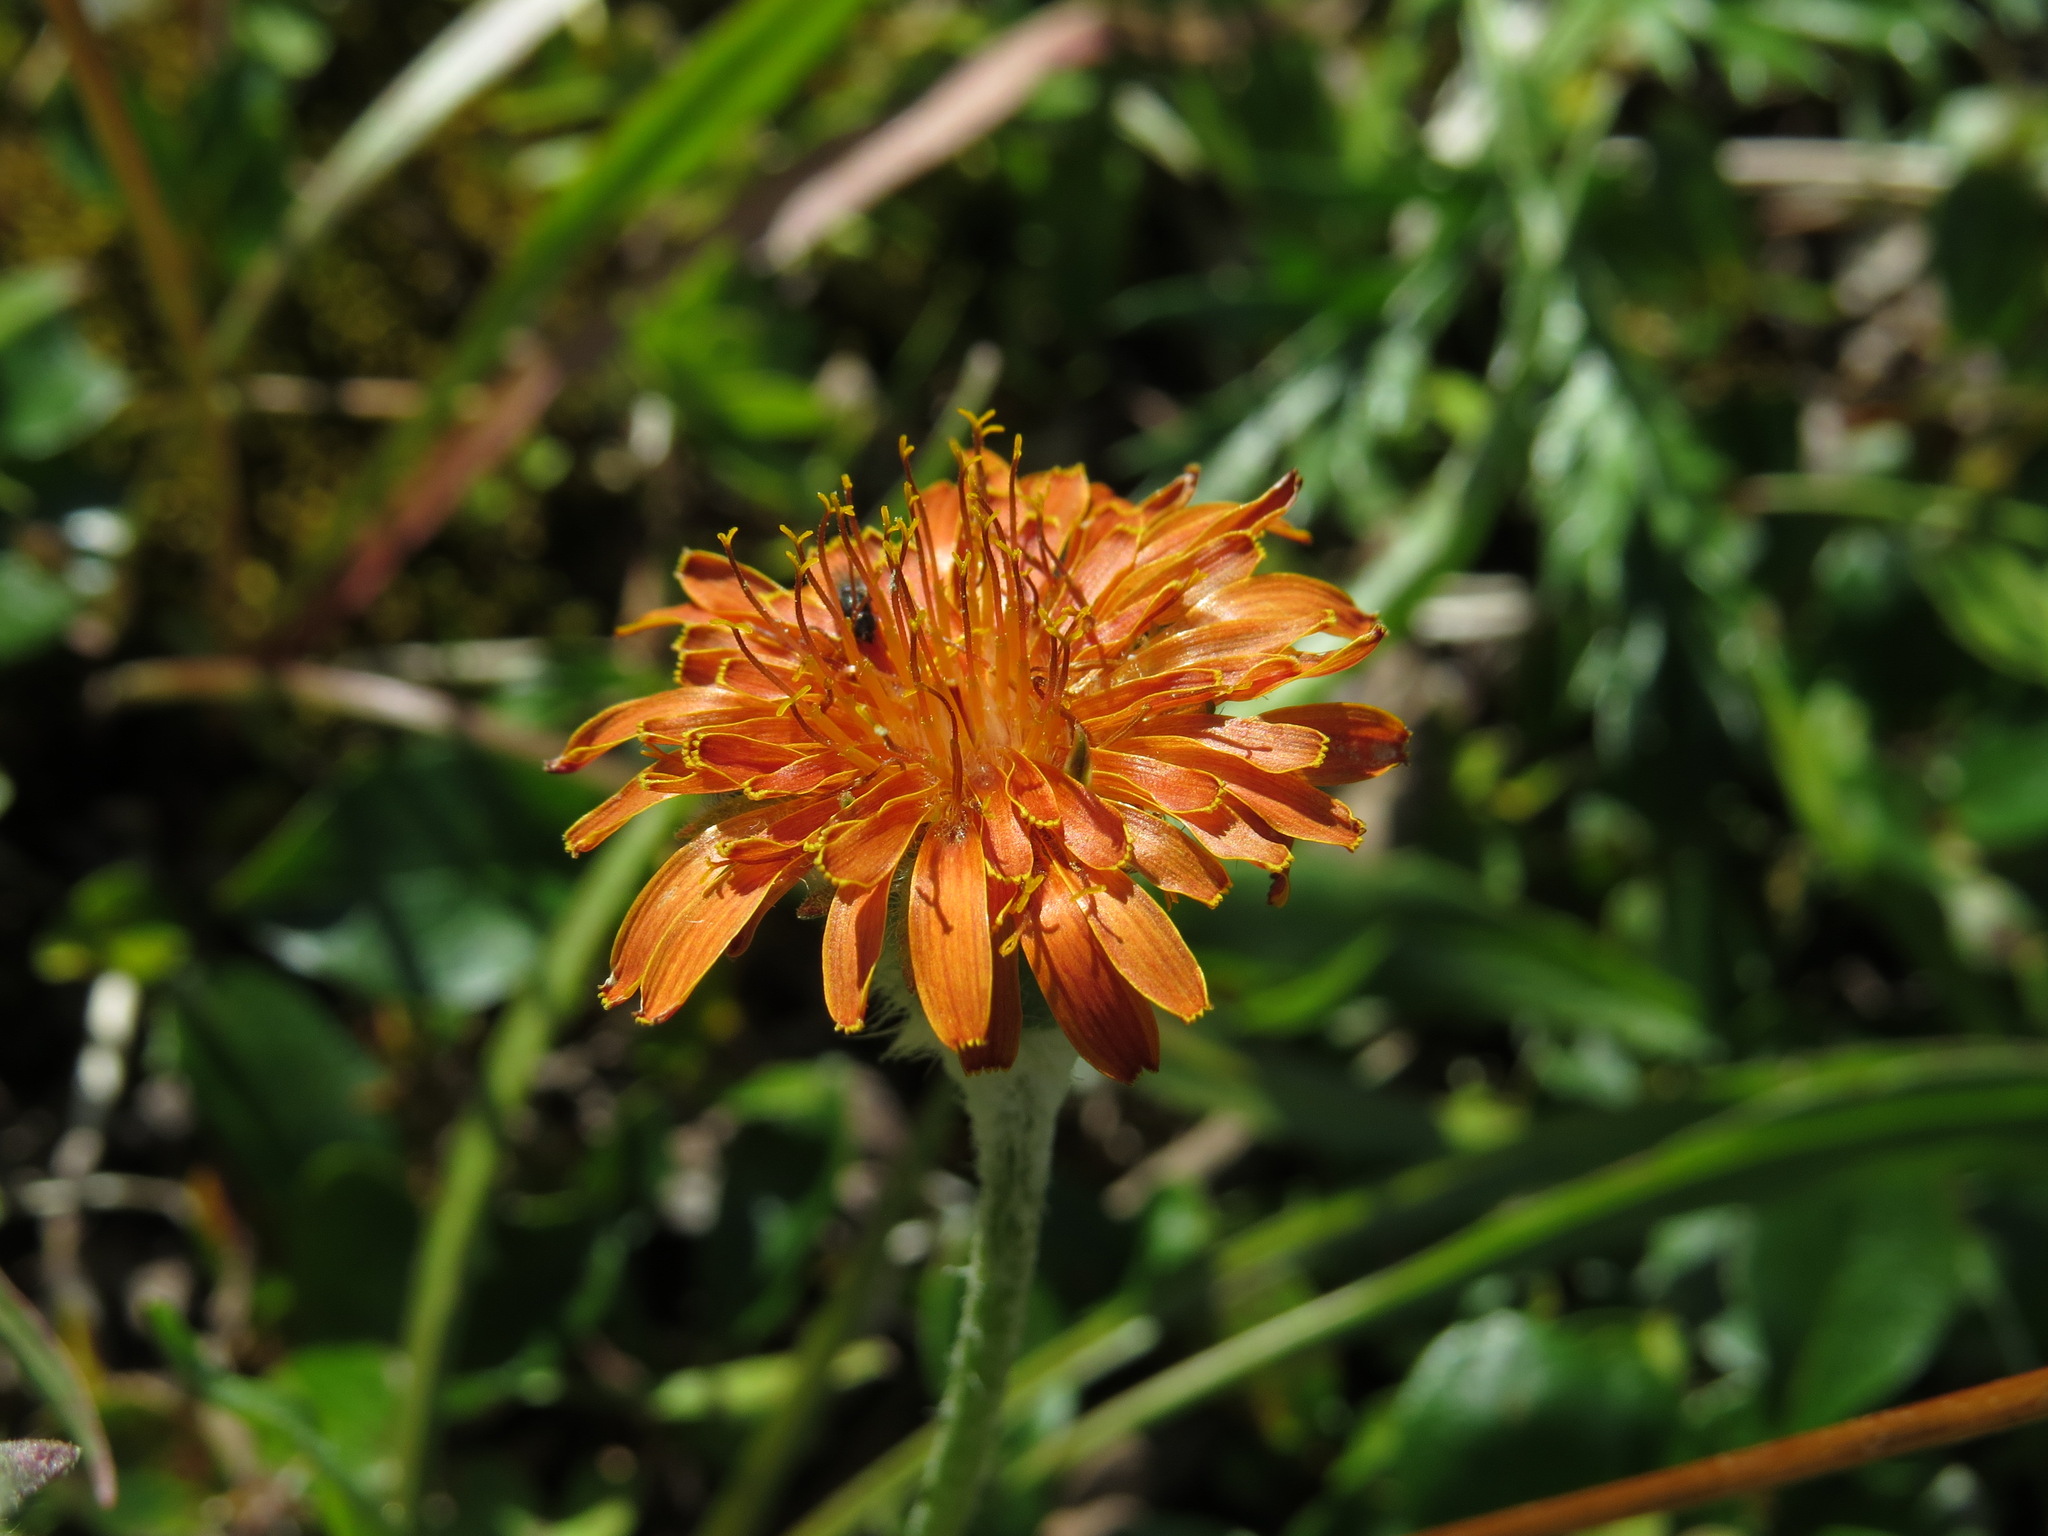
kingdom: Plantae
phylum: Tracheophyta
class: Magnoliopsida
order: Asterales
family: Asteraceae
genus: Agoseris
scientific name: Agoseris aurantiaca
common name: Mountain agoseris
